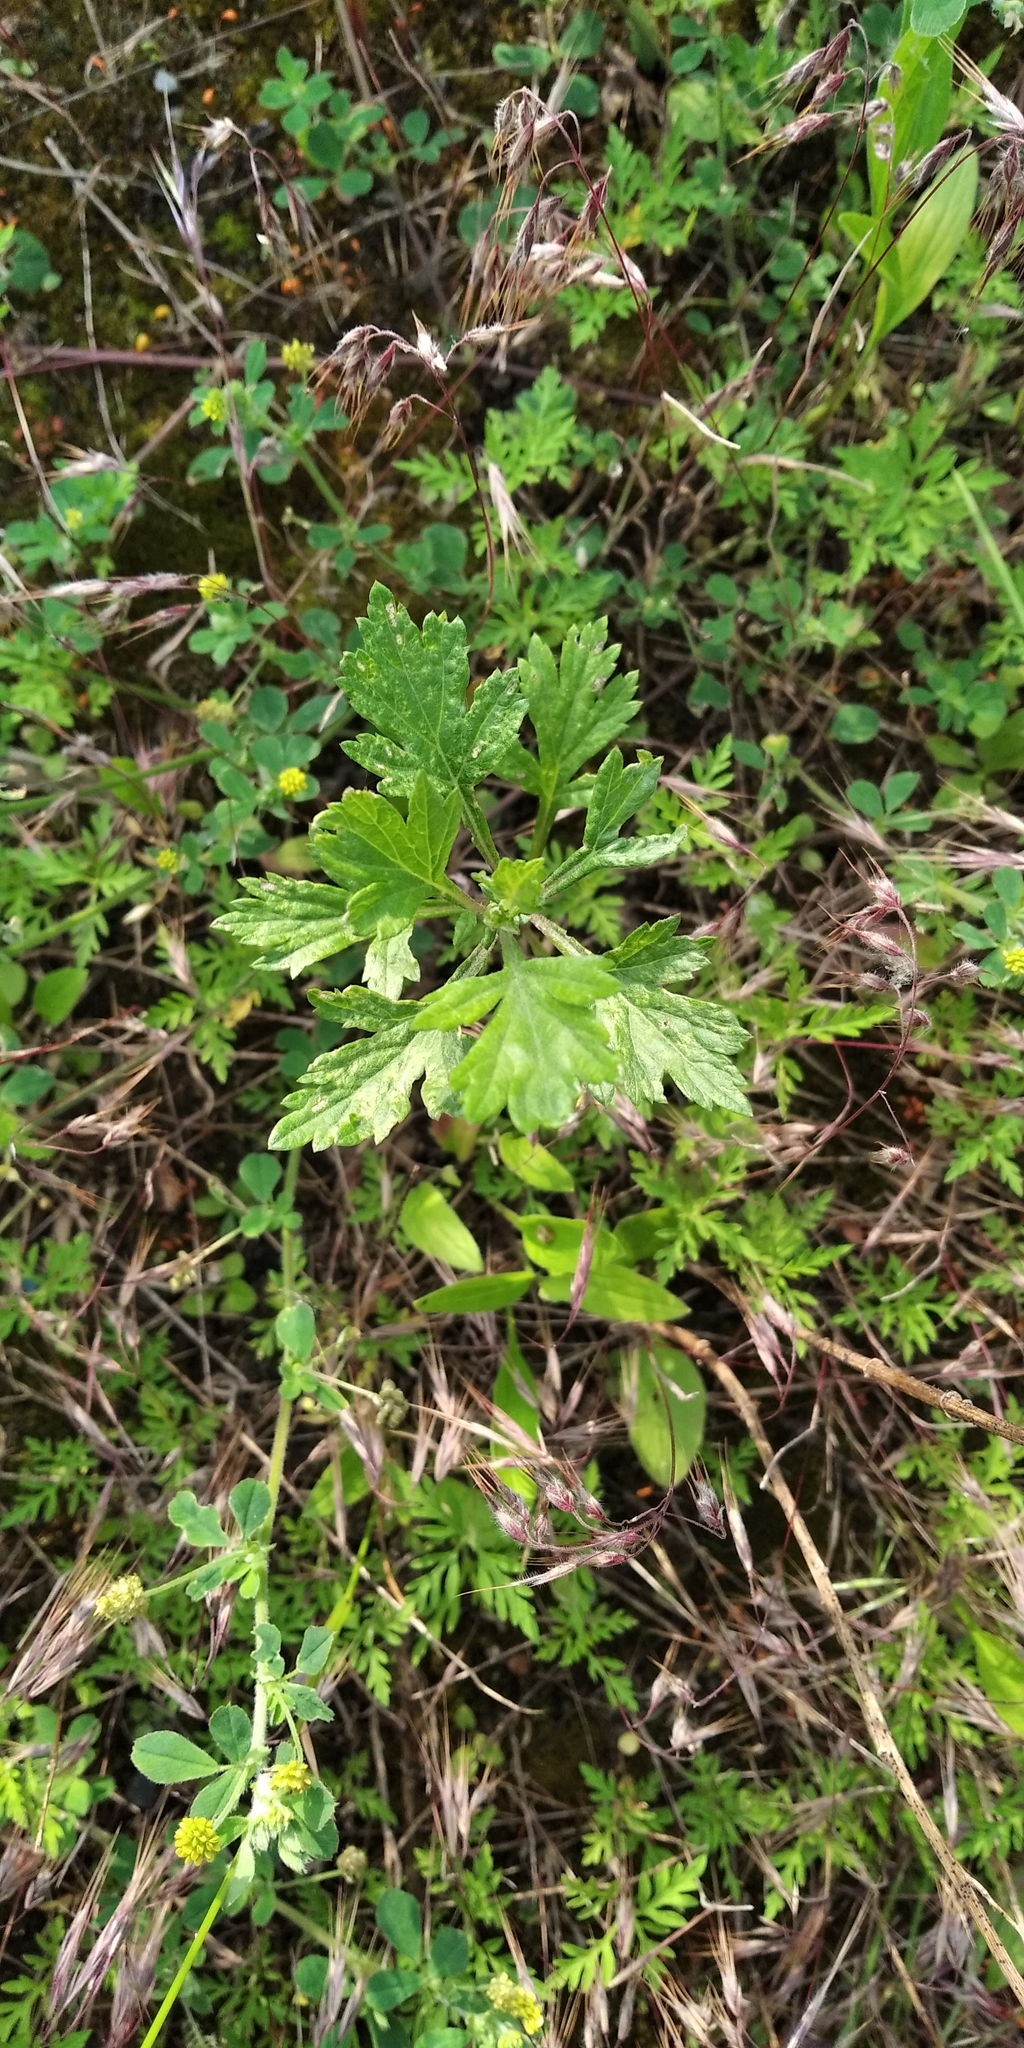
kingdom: Plantae
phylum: Tracheophyta
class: Magnoliopsida
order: Asterales
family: Asteraceae
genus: Artemisia
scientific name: Artemisia vulgaris
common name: Mugwort
